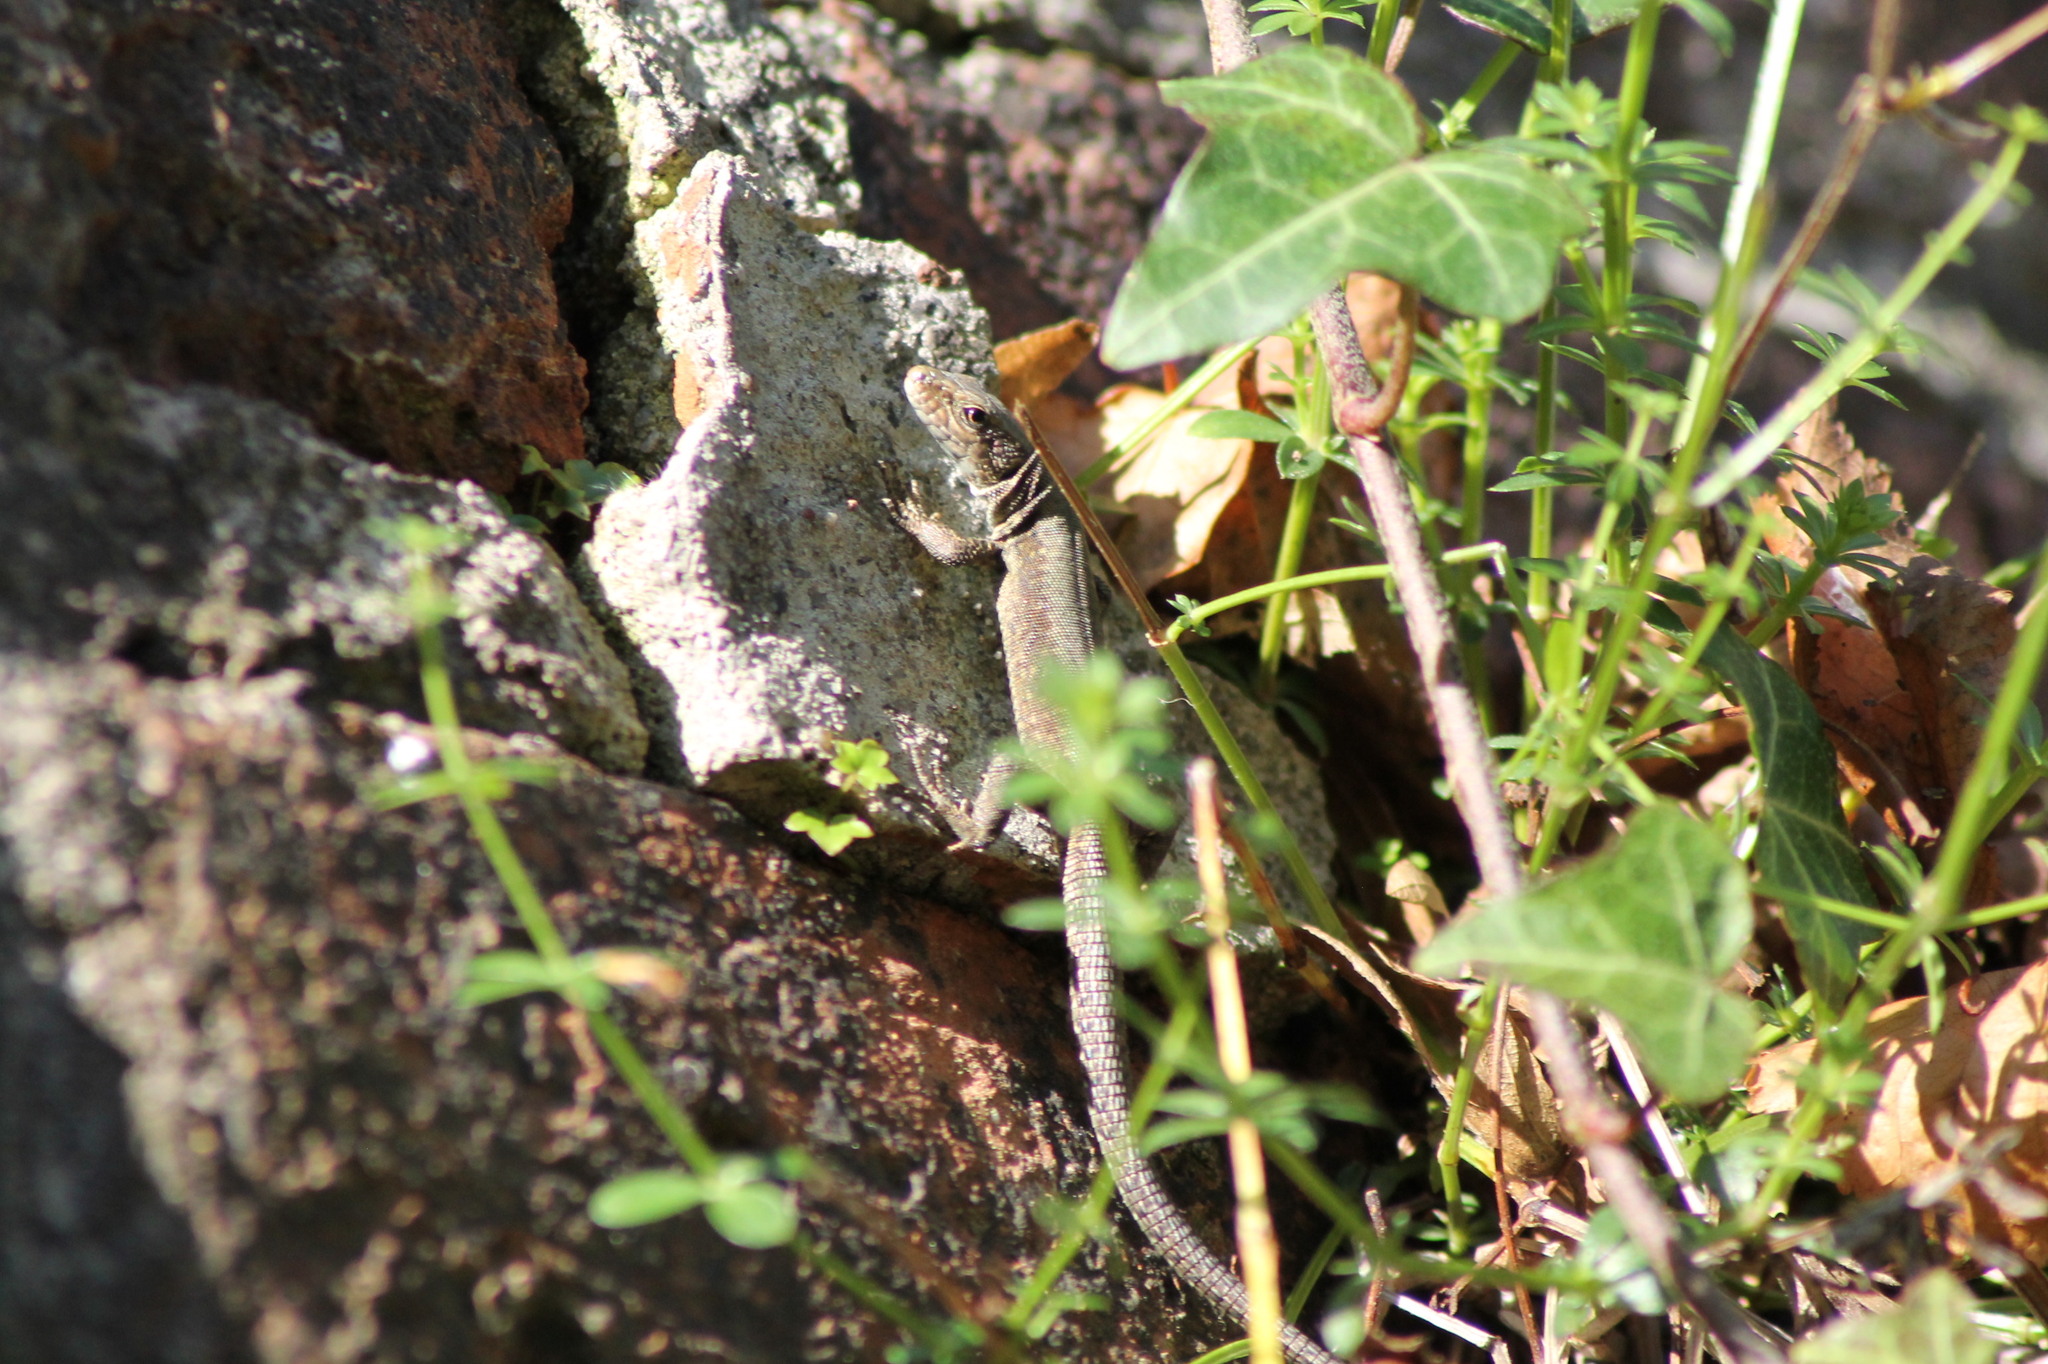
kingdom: Animalia
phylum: Chordata
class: Squamata
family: Lacertidae
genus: Podarcis
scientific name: Podarcis muralis
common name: Common wall lizard
